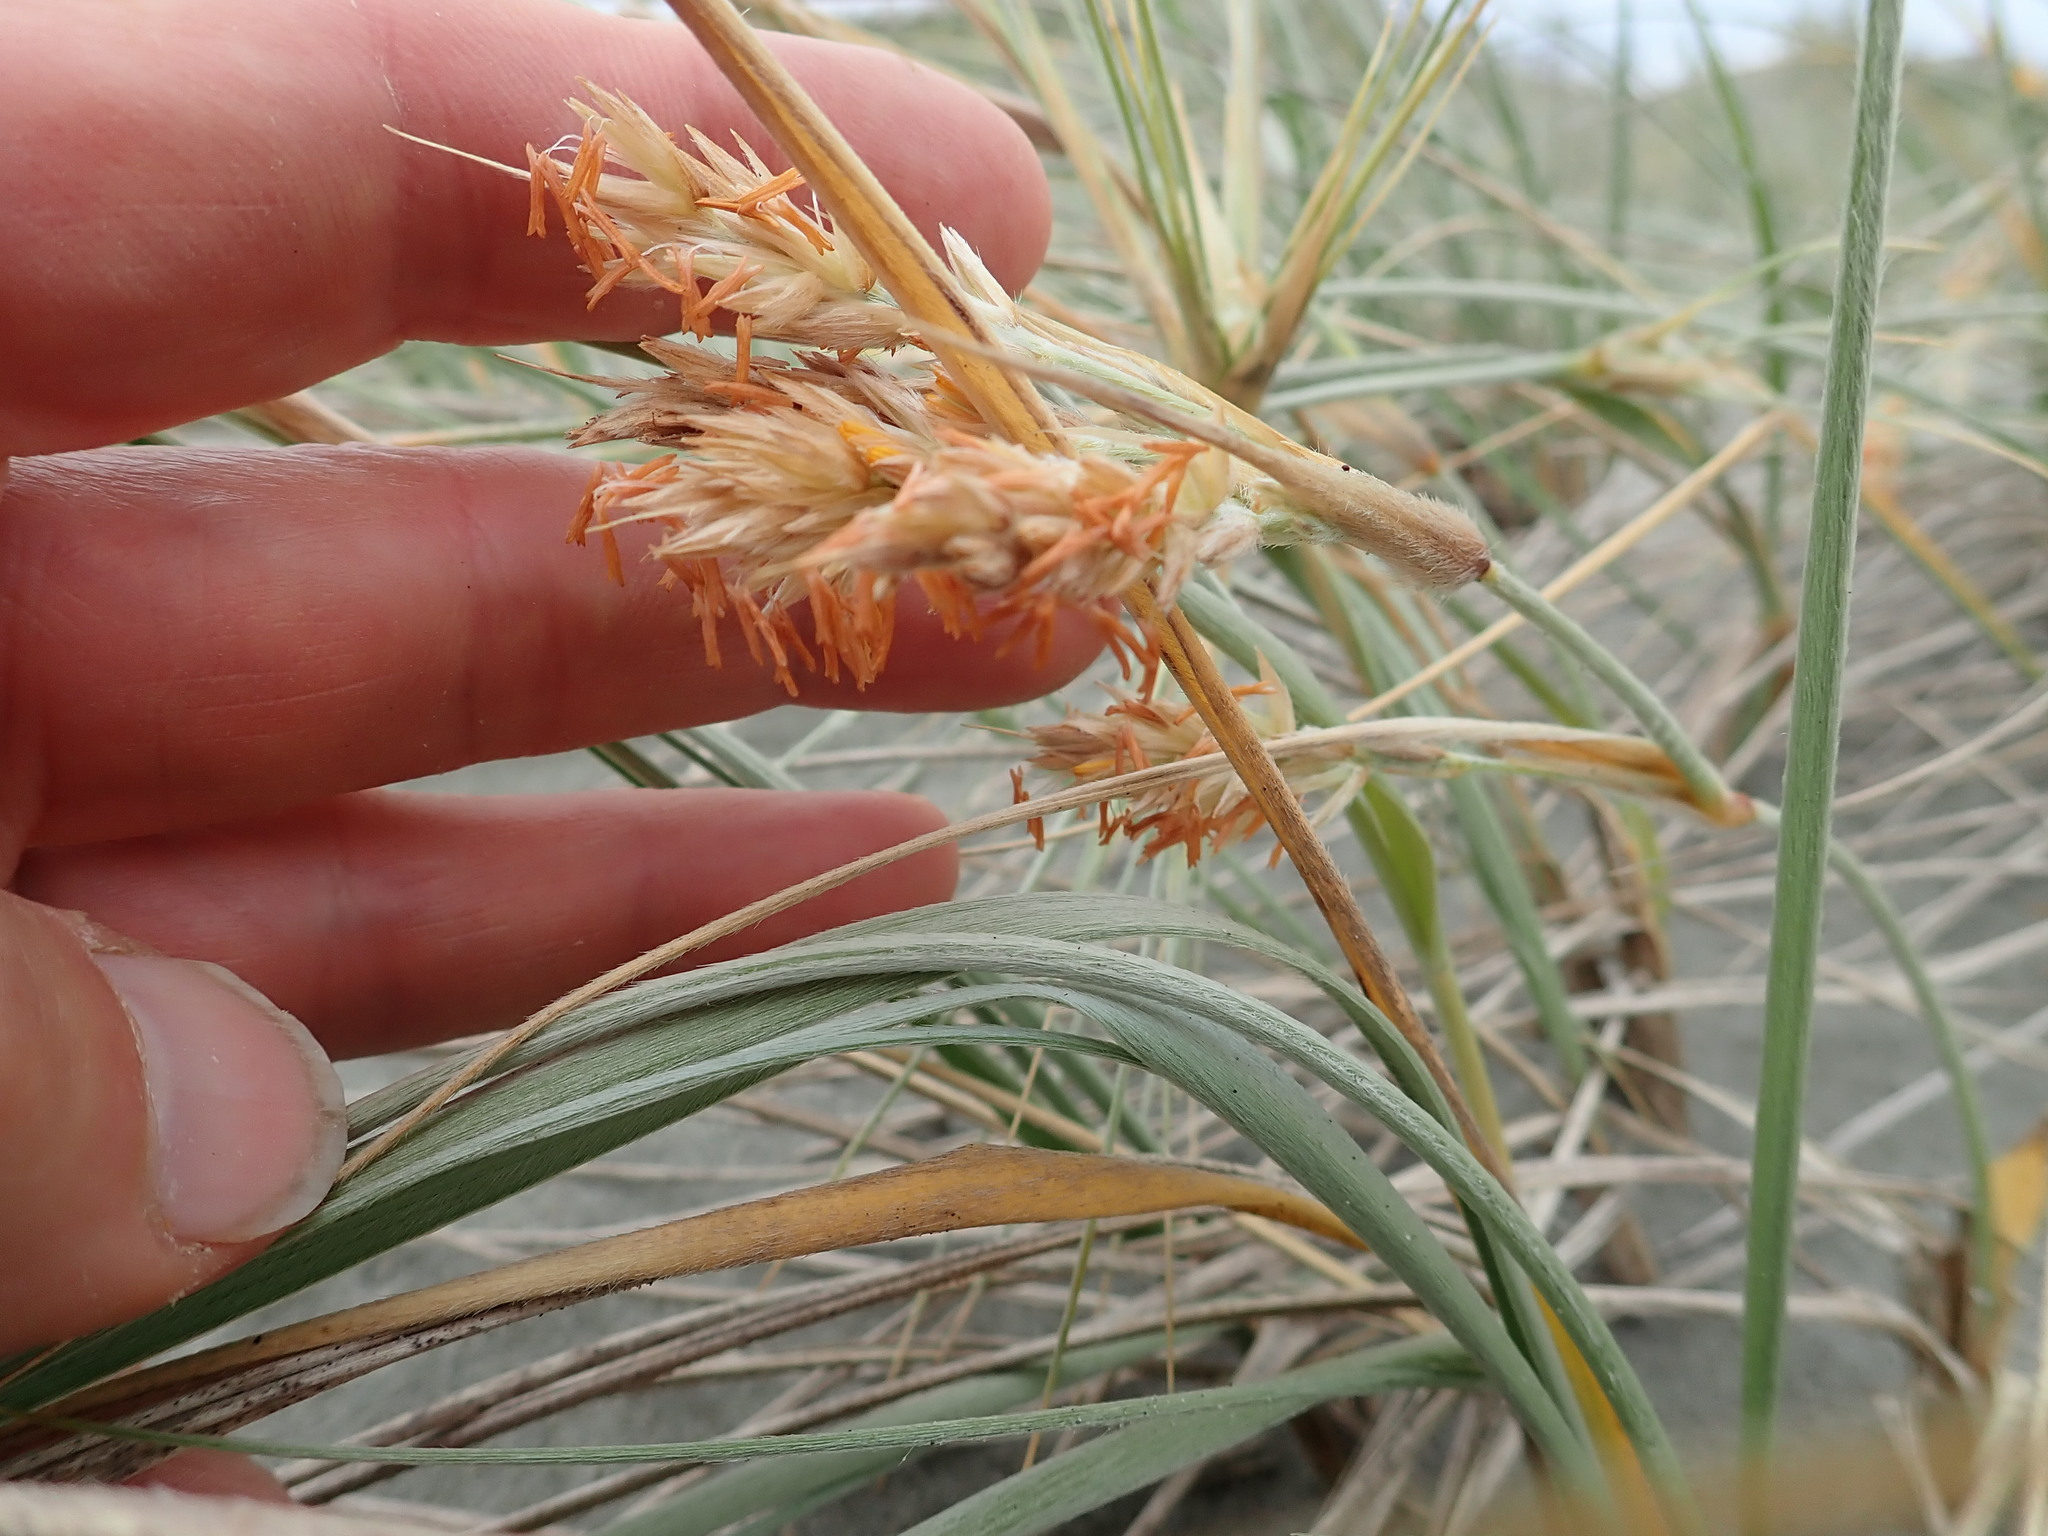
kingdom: Plantae
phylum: Tracheophyta
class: Liliopsida
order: Poales
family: Poaceae
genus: Spinifex
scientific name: Spinifex sericeus
